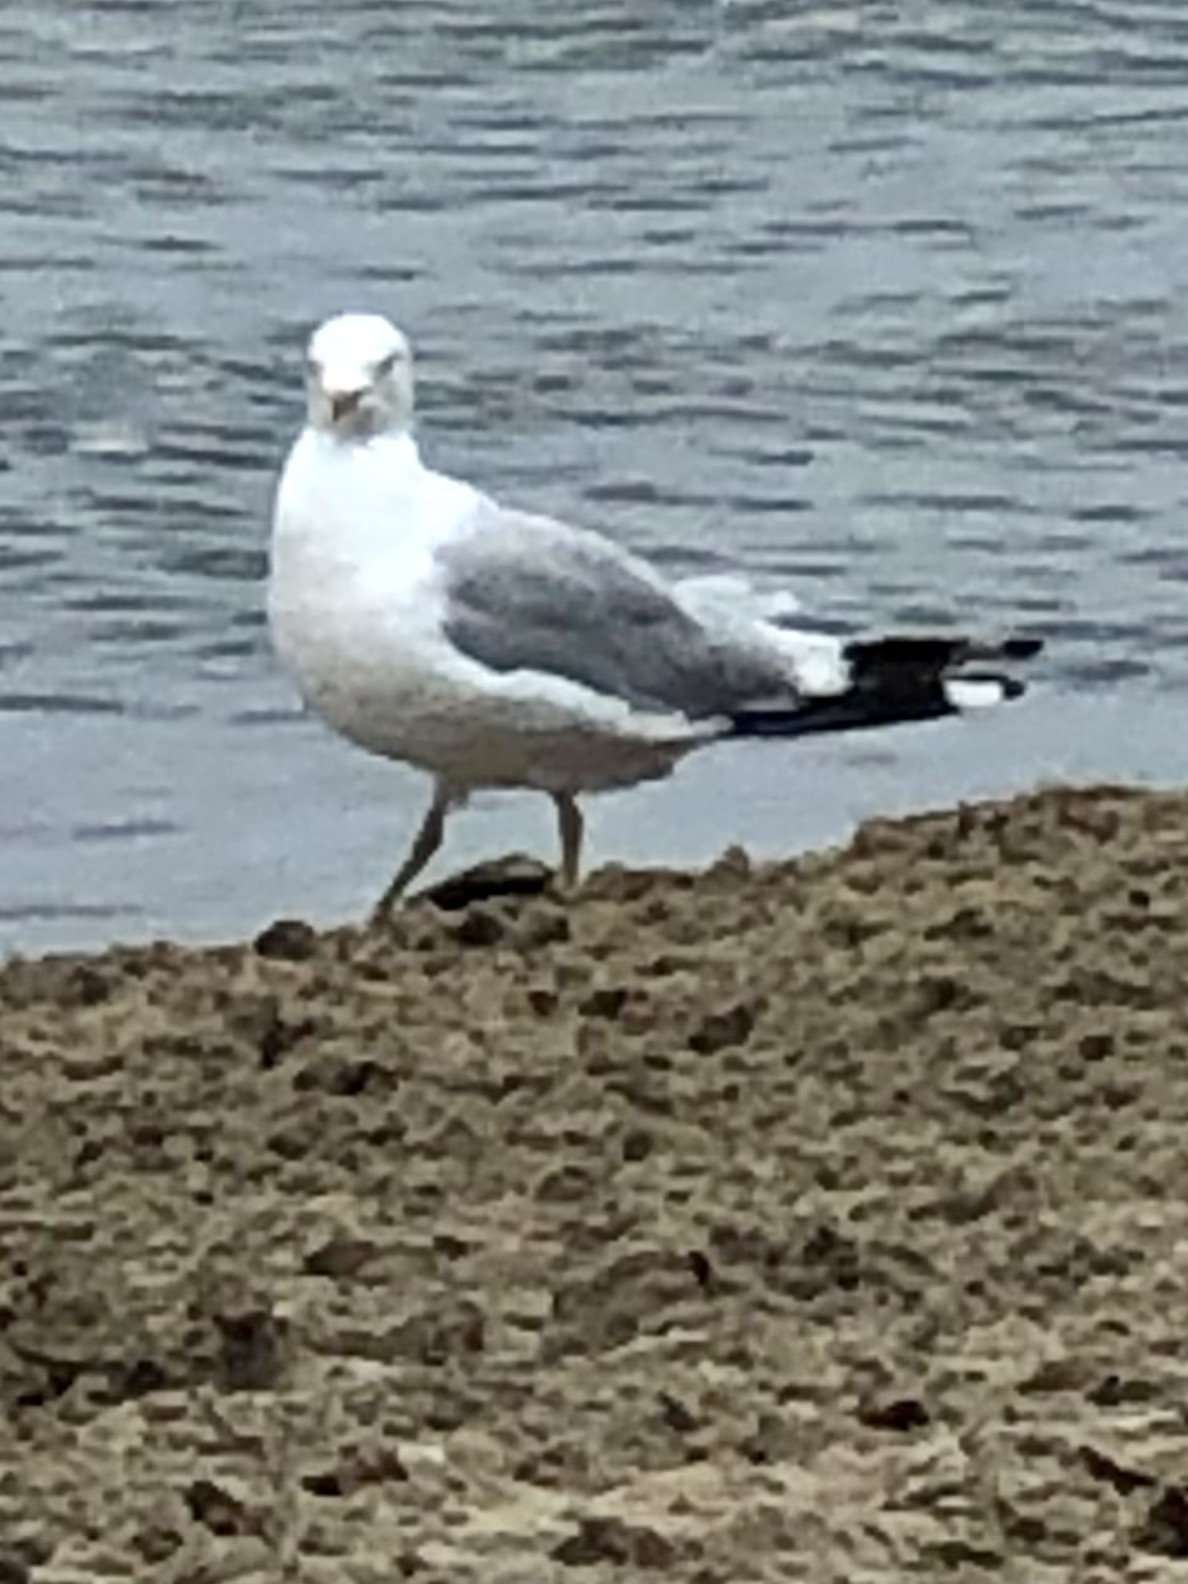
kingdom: Animalia
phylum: Chordata
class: Aves
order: Charadriiformes
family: Laridae
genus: Larus
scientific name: Larus delawarensis
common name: Ring-billed gull
